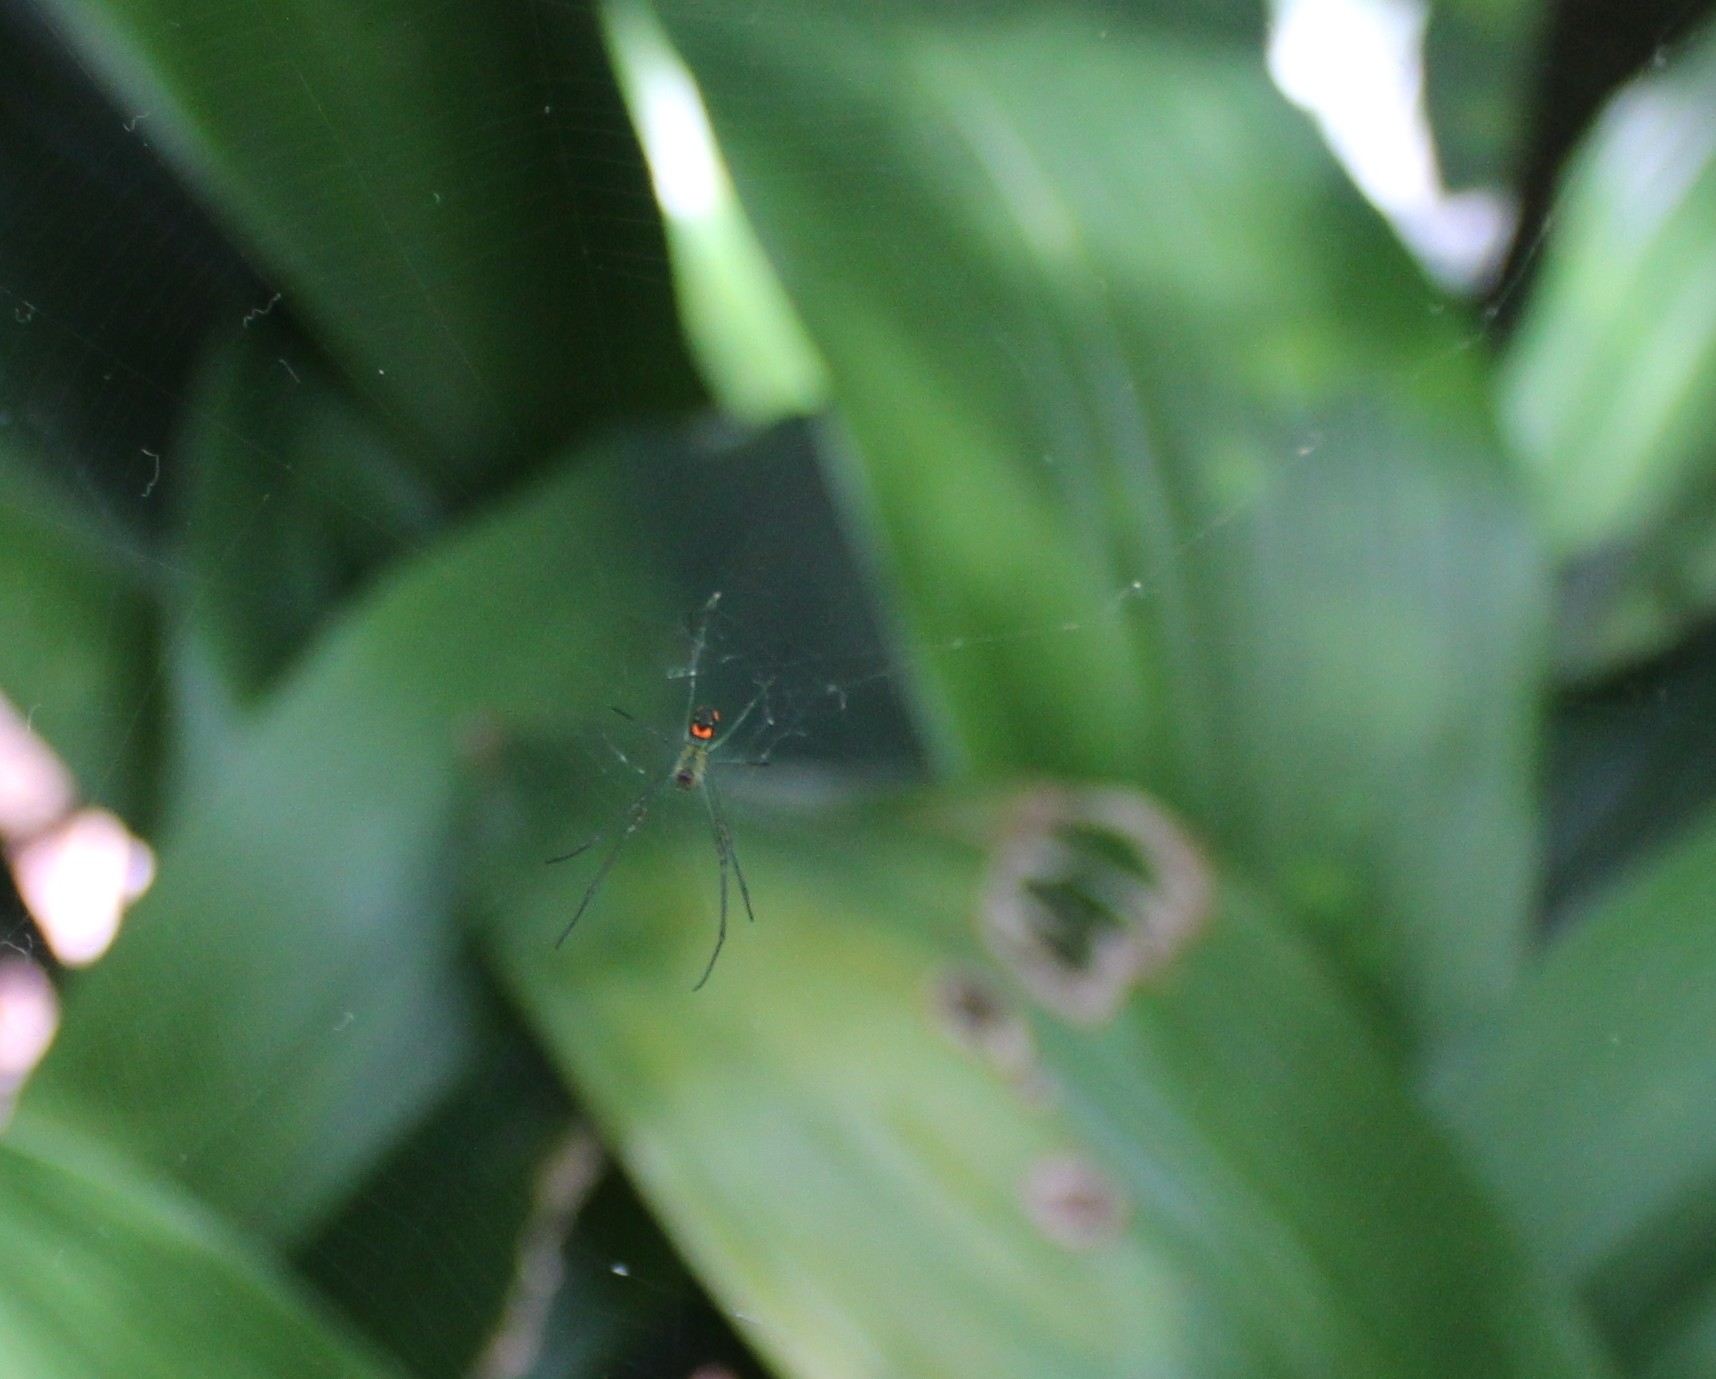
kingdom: Animalia
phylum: Arthropoda
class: Arachnida
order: Araneae
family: Tetragnathidae
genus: Leucauge
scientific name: Leucauge argyrobapta
